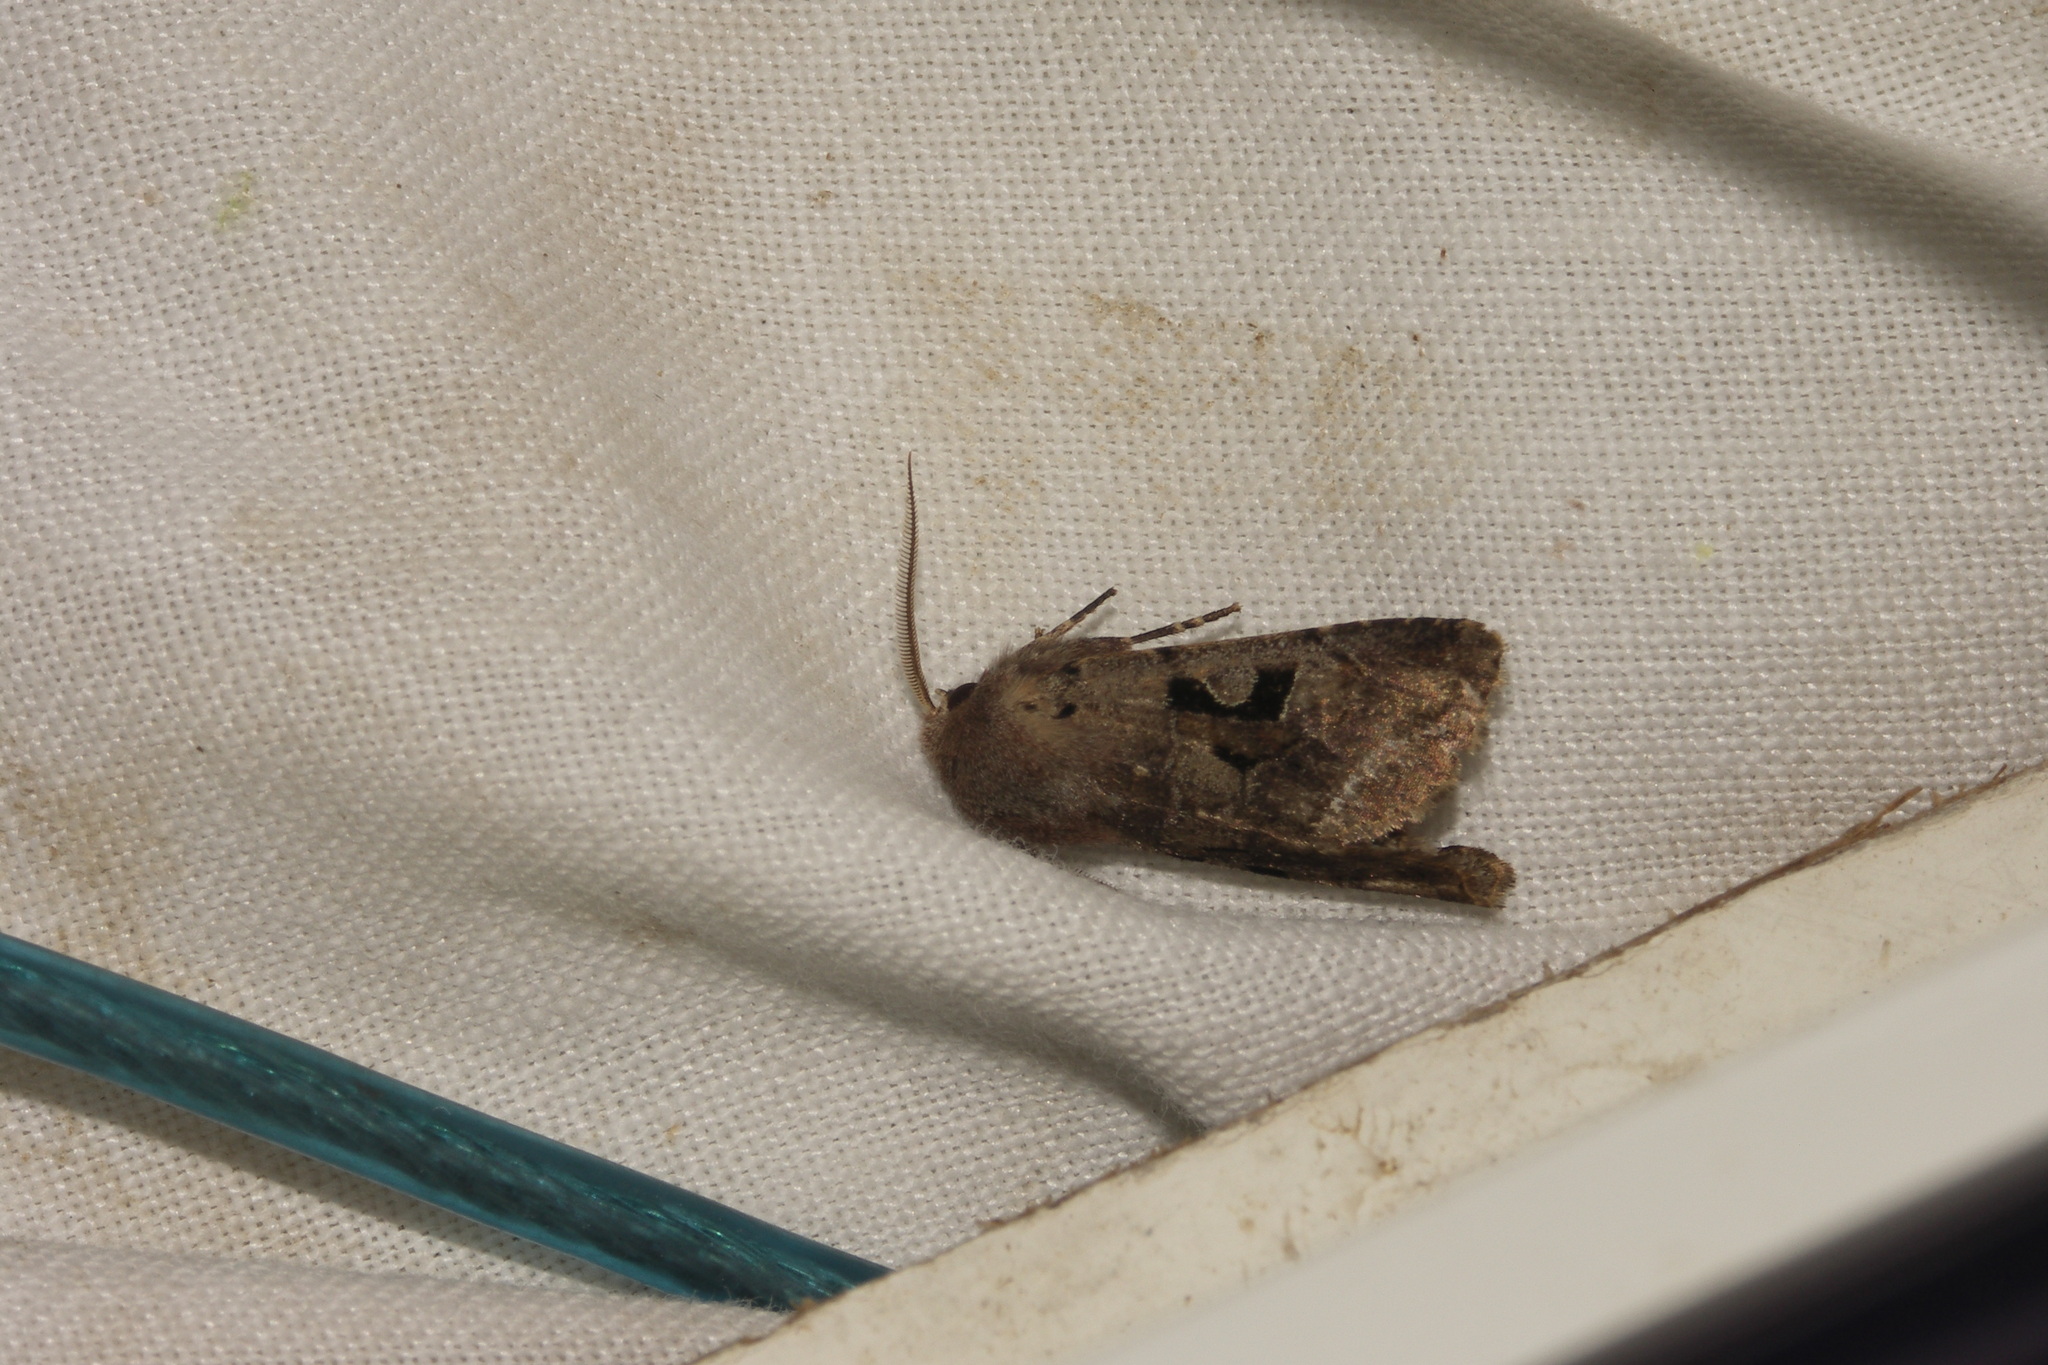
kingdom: Animalia
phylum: Arthropoda
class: Insecta
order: Lepidoptera
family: Noctuidae
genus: Orthosia
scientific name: Orthosia gothica
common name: Hebrew character
